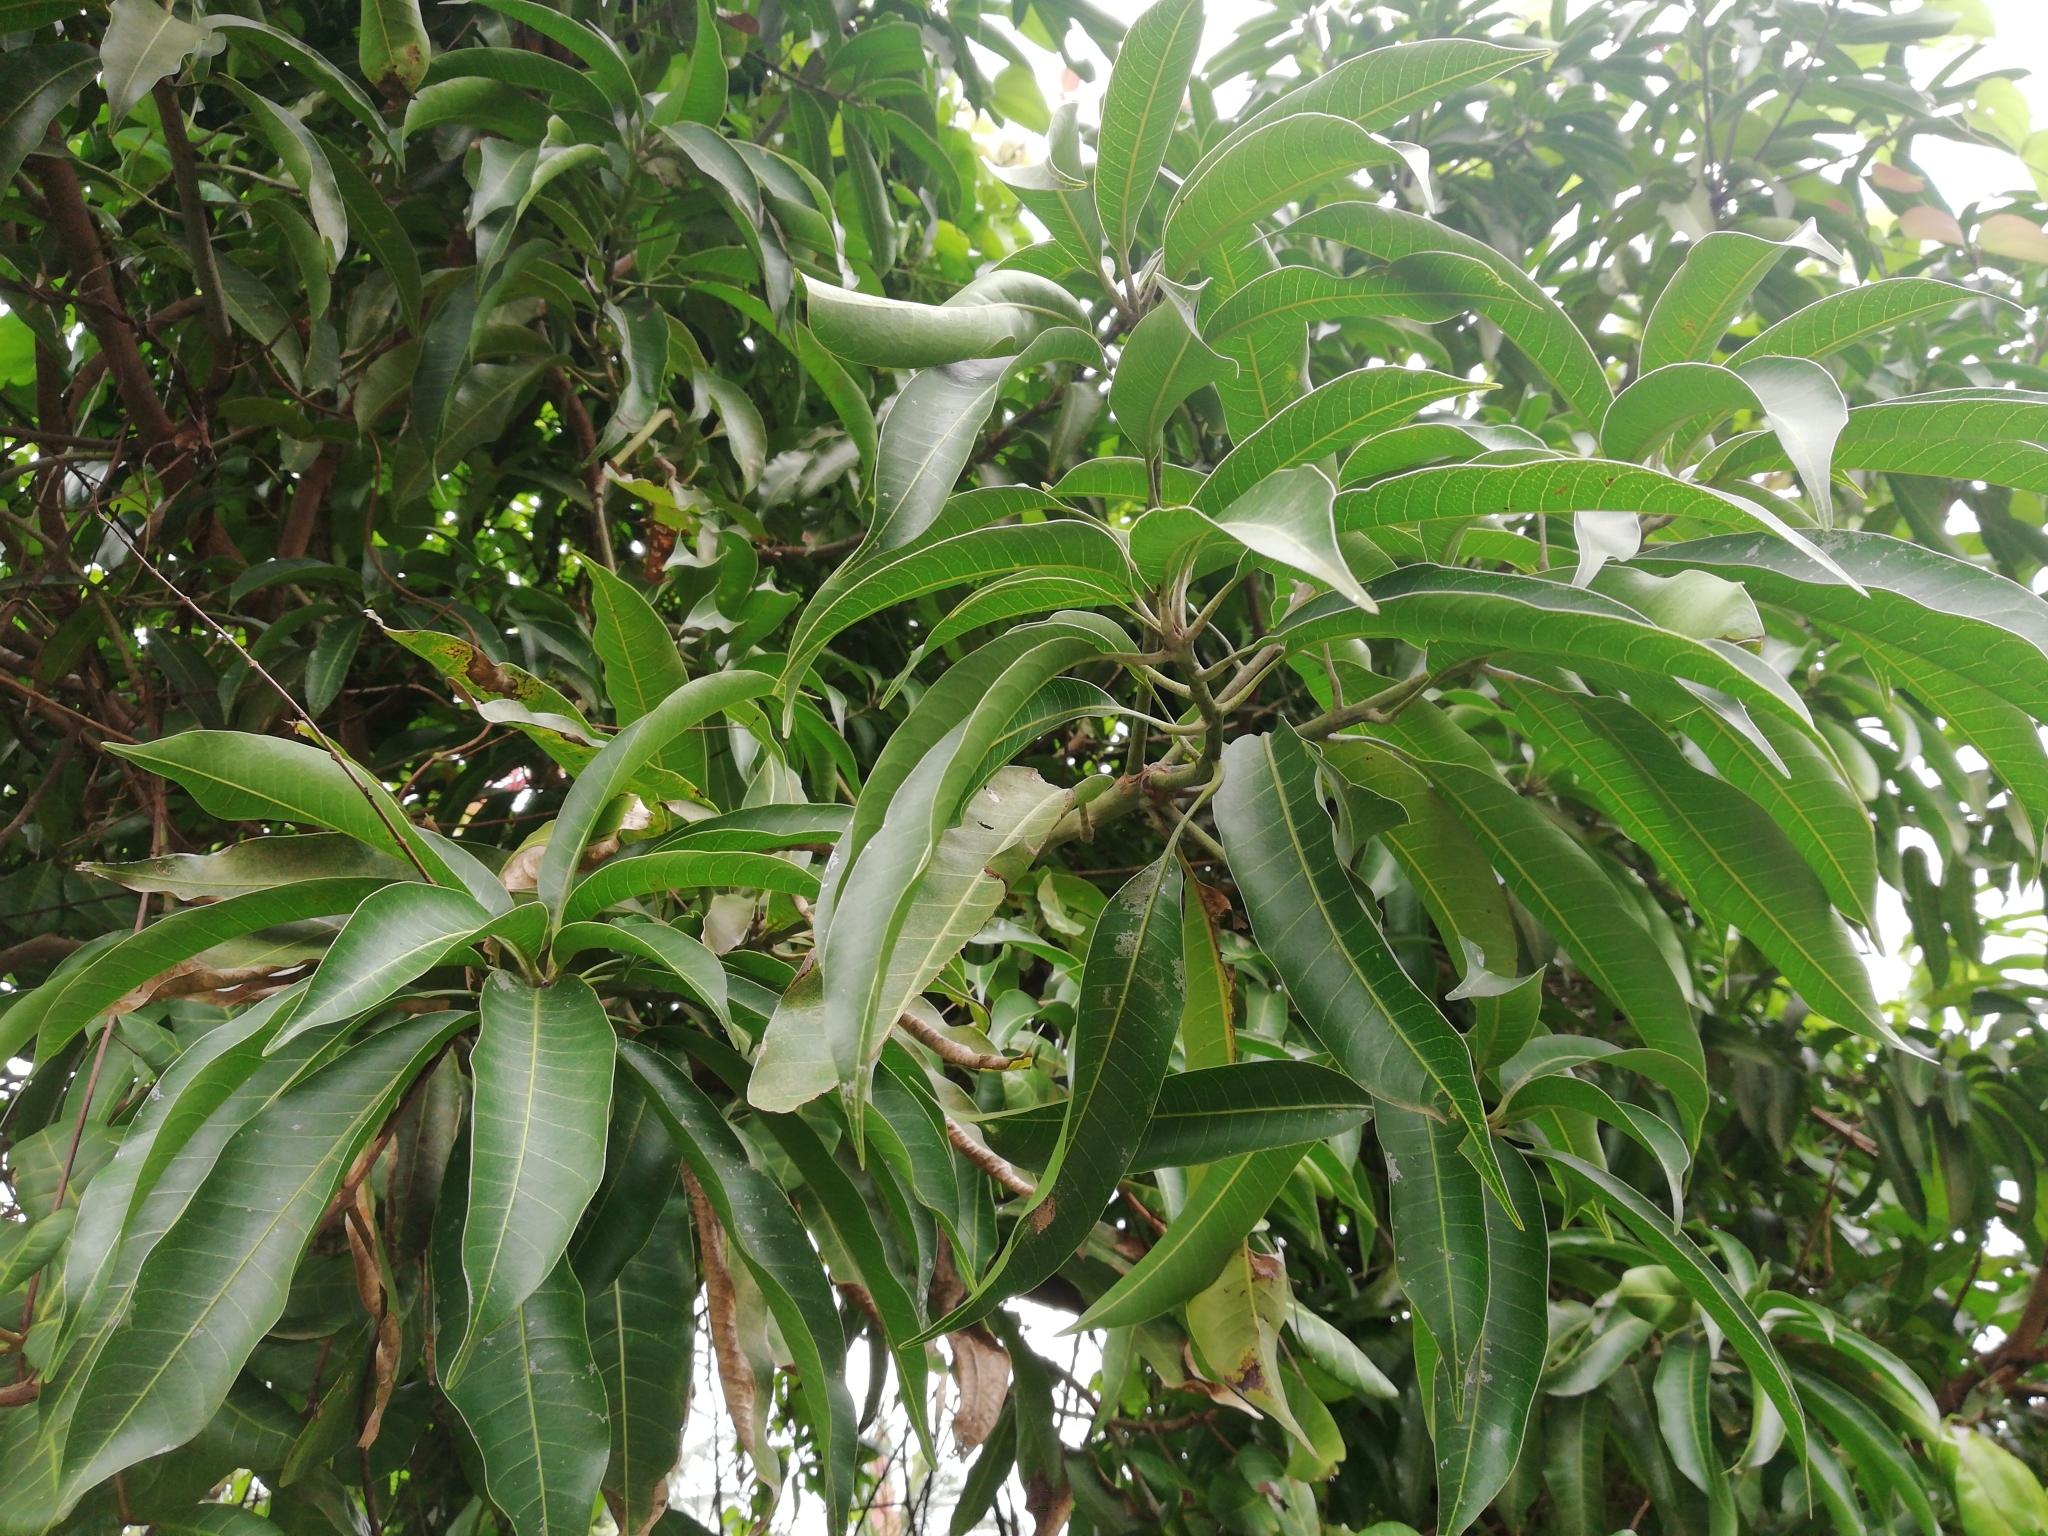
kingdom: Plantae
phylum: Tracheophyta
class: Magnoliopsida
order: Sapindales
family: Anacardiaceae
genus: Mangifera
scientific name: Mangifera indica
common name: Mango
